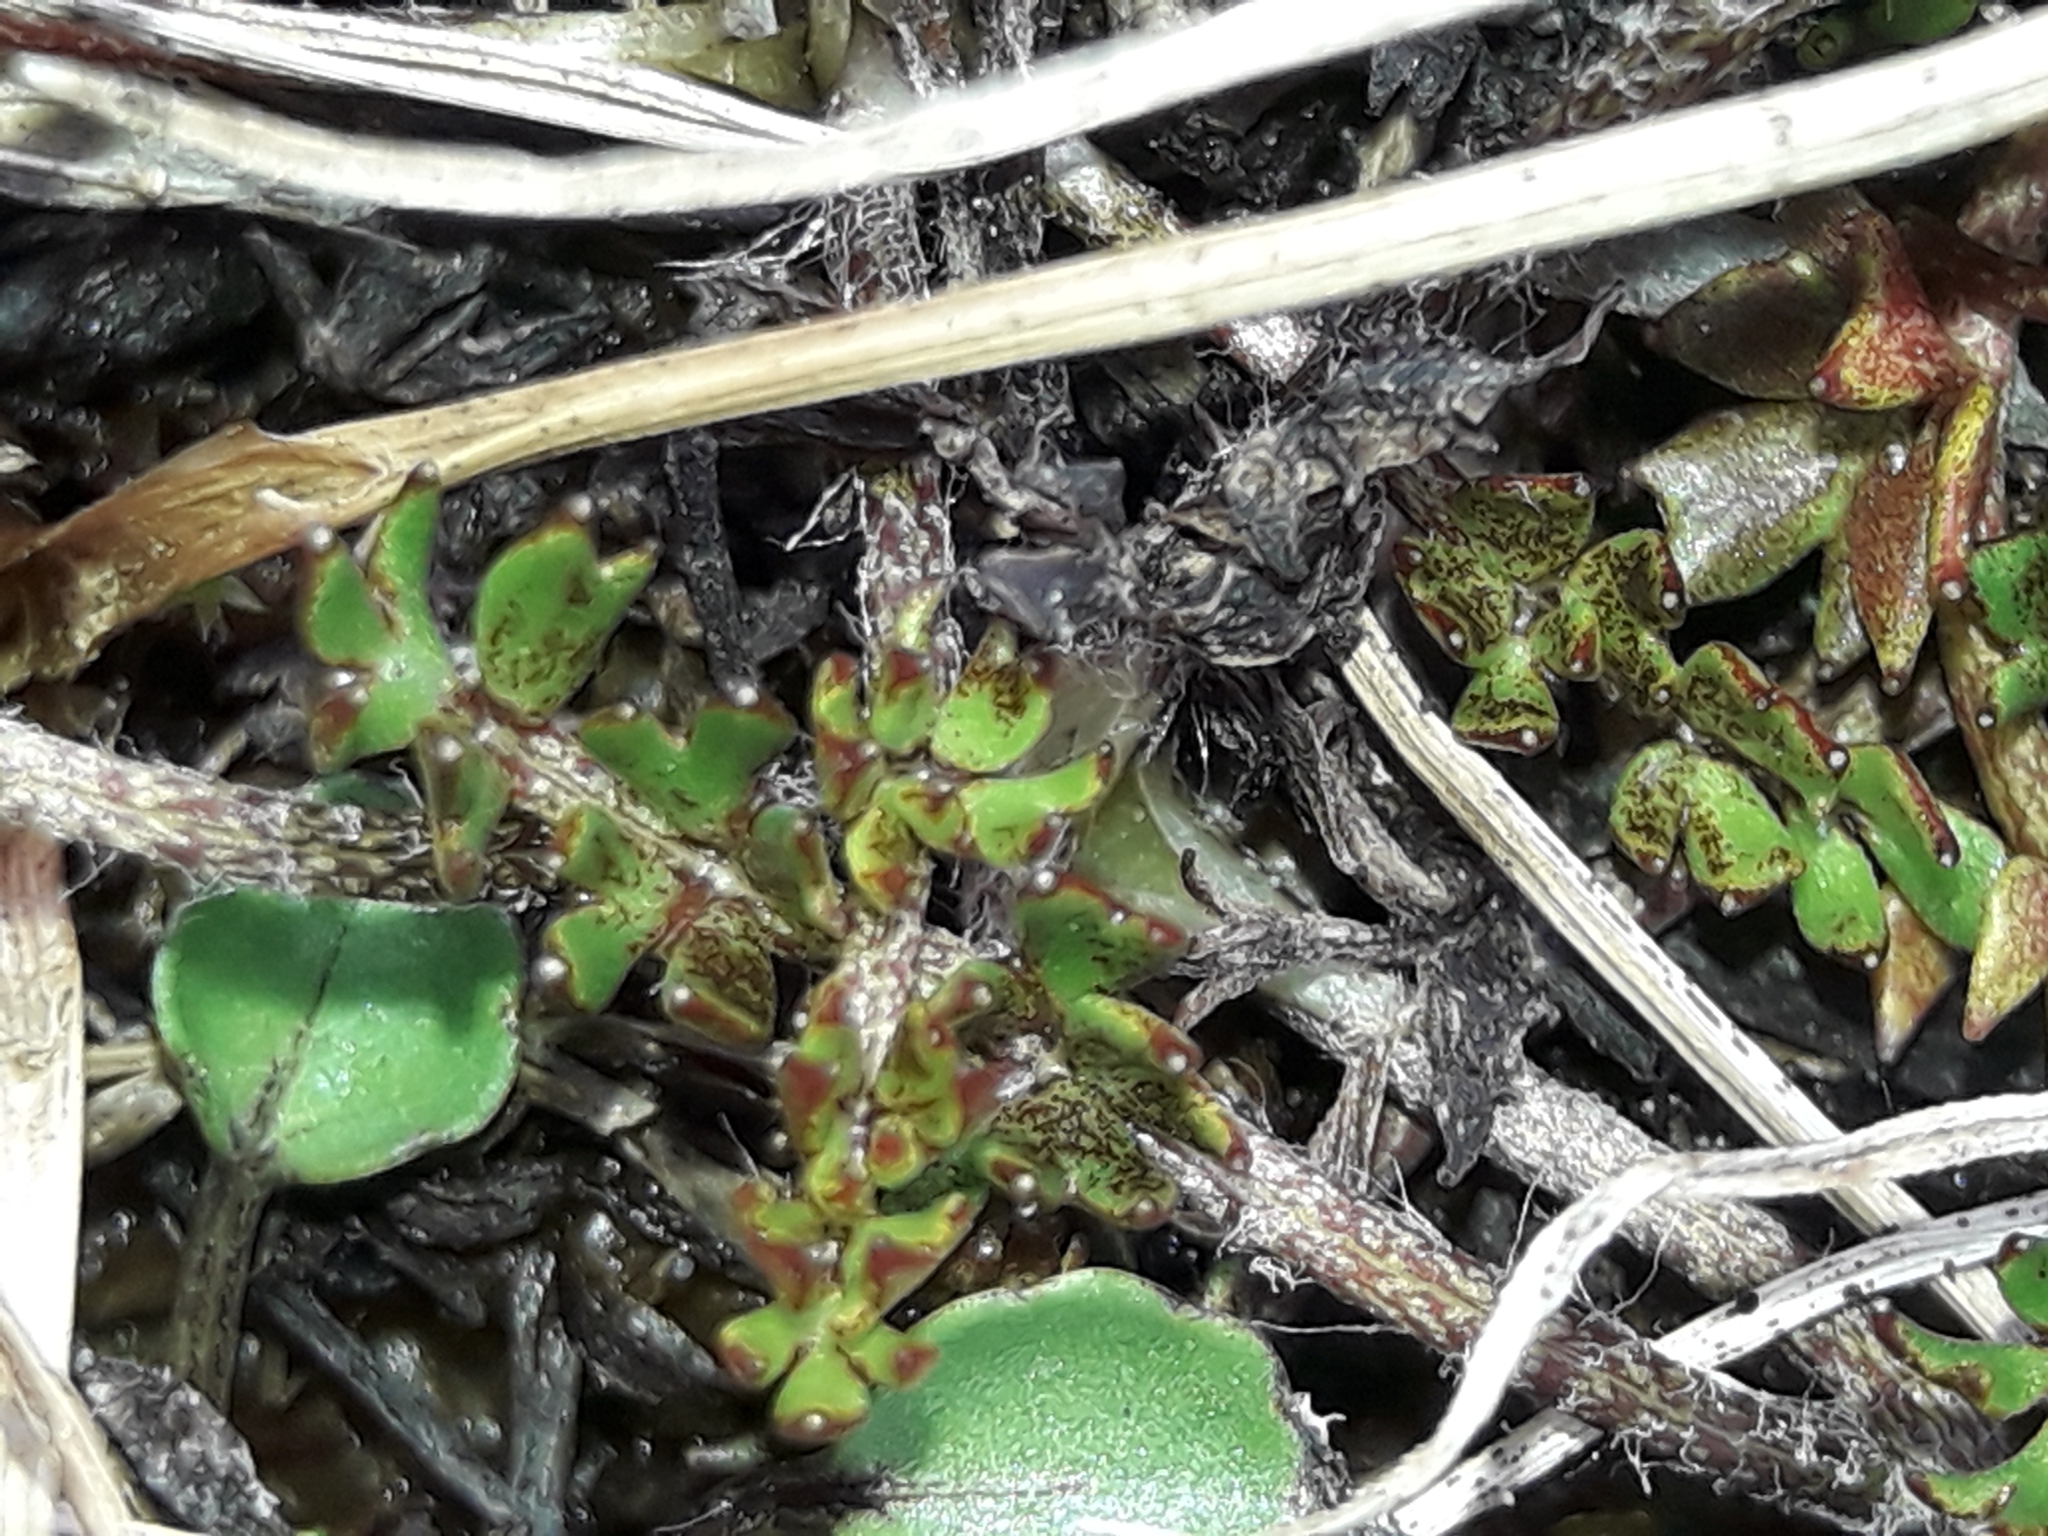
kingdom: Plantae
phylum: Tracheophyta
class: Magnoliopsida
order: Ranunculales
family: Ranunculaceae
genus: Ranunculus
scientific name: Ranunculus gracilipes
